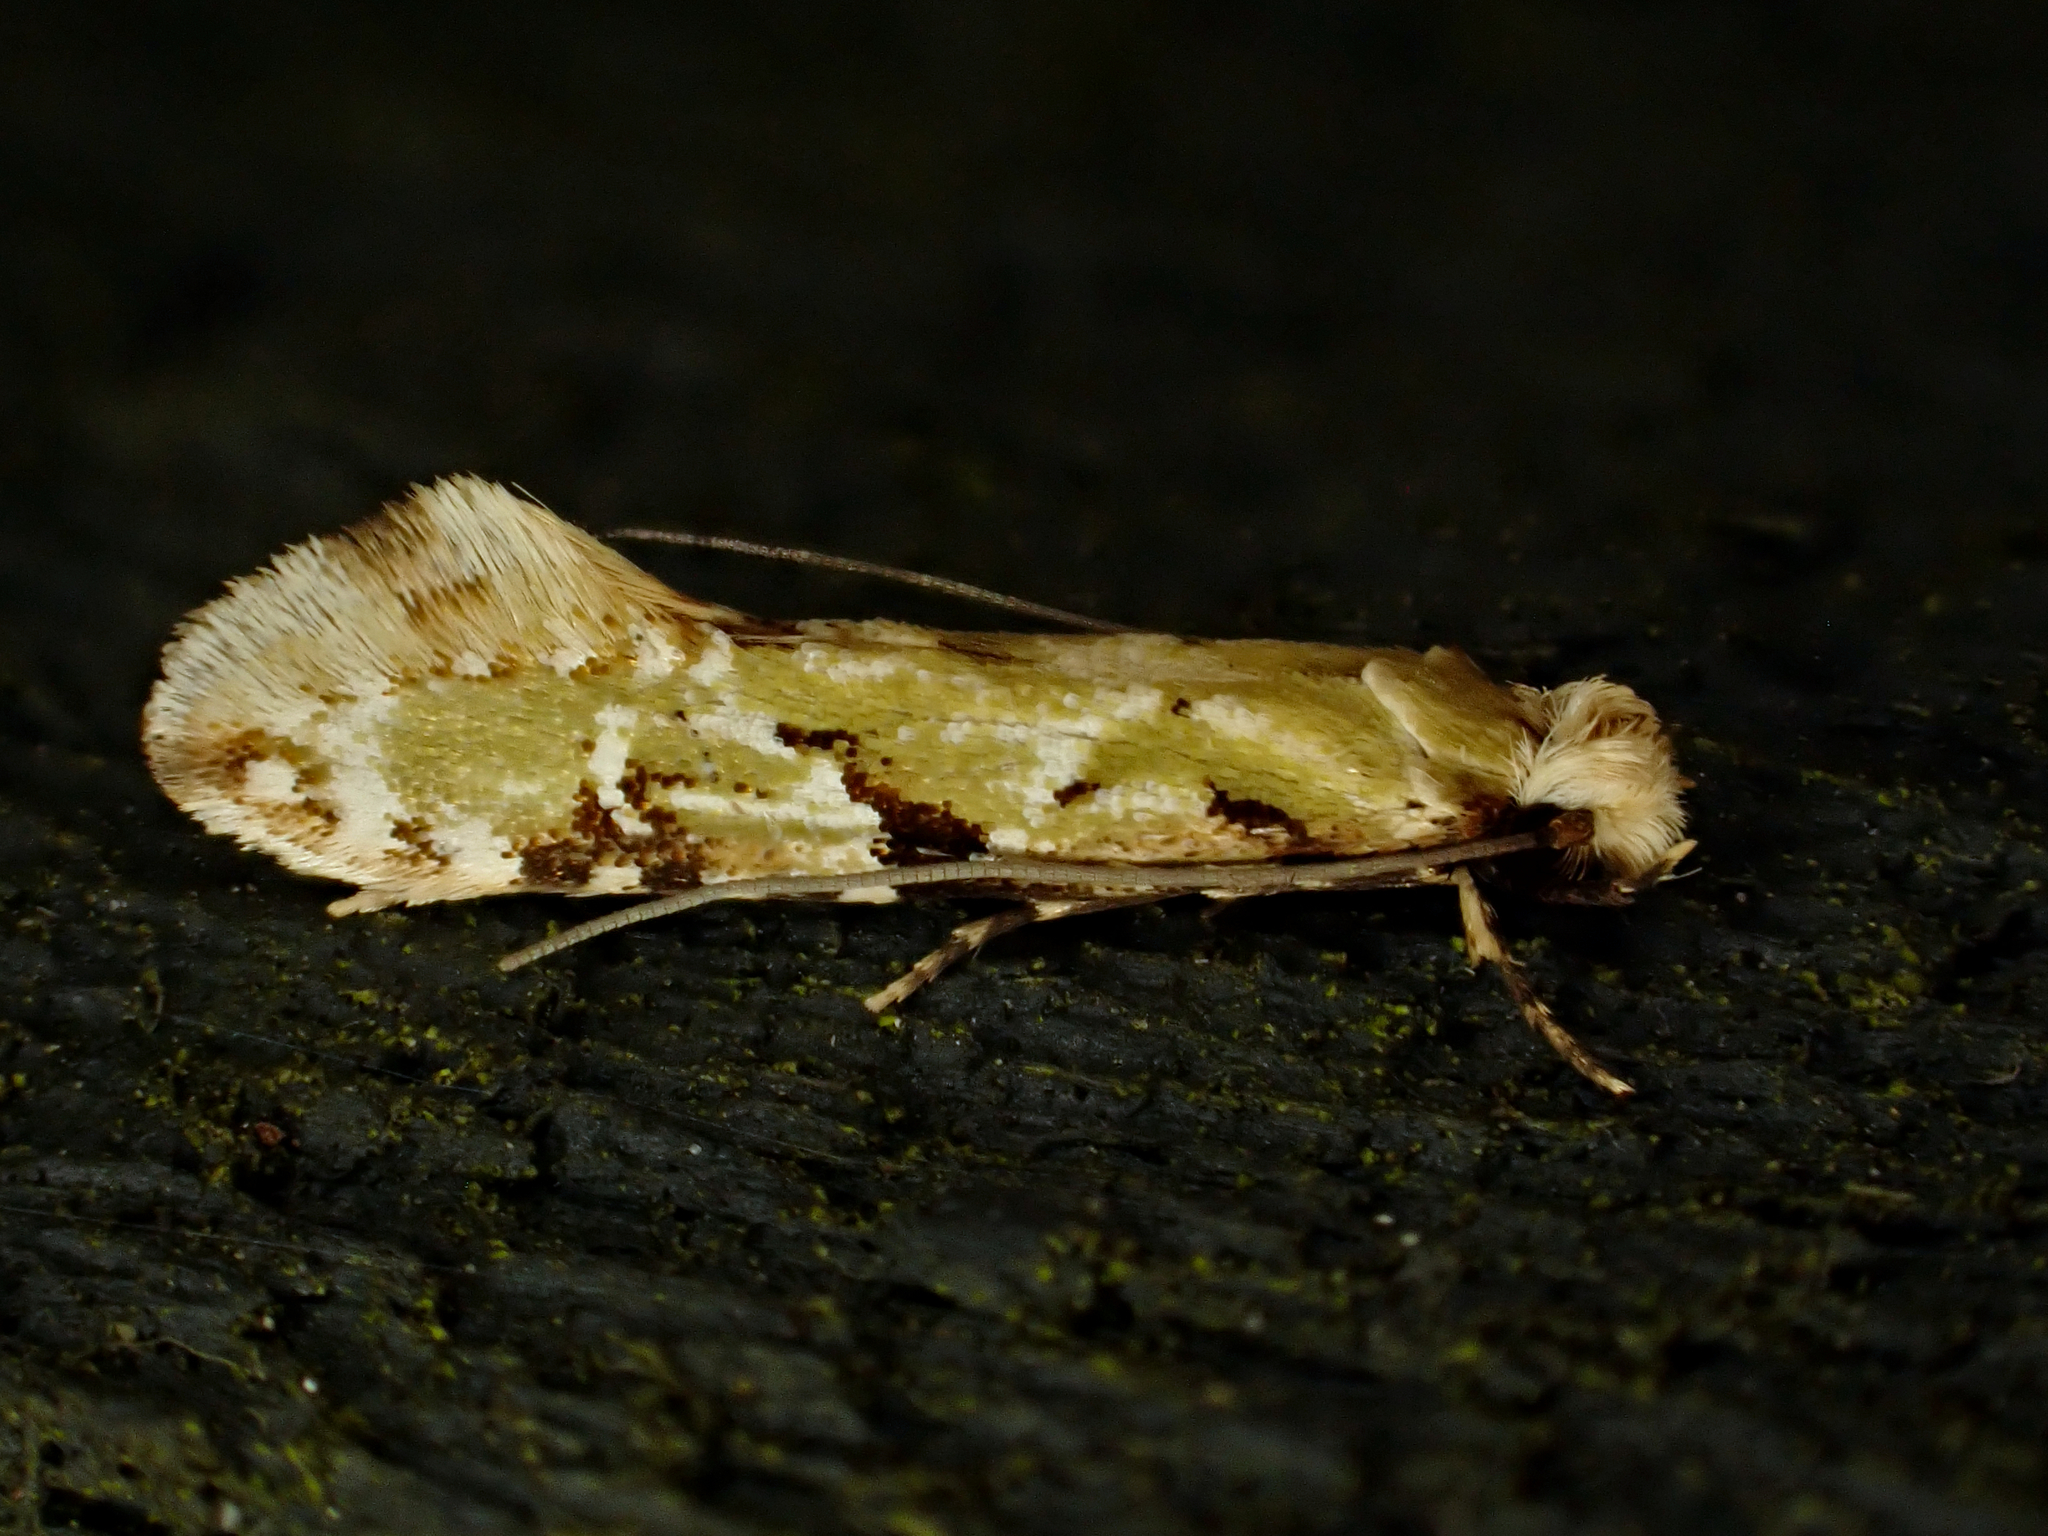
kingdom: Animalia
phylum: Arthropoda
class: Insecta
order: Lepidoptera
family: Tineidae
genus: Crypsitricha
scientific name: Crypsitricha mesotypa
